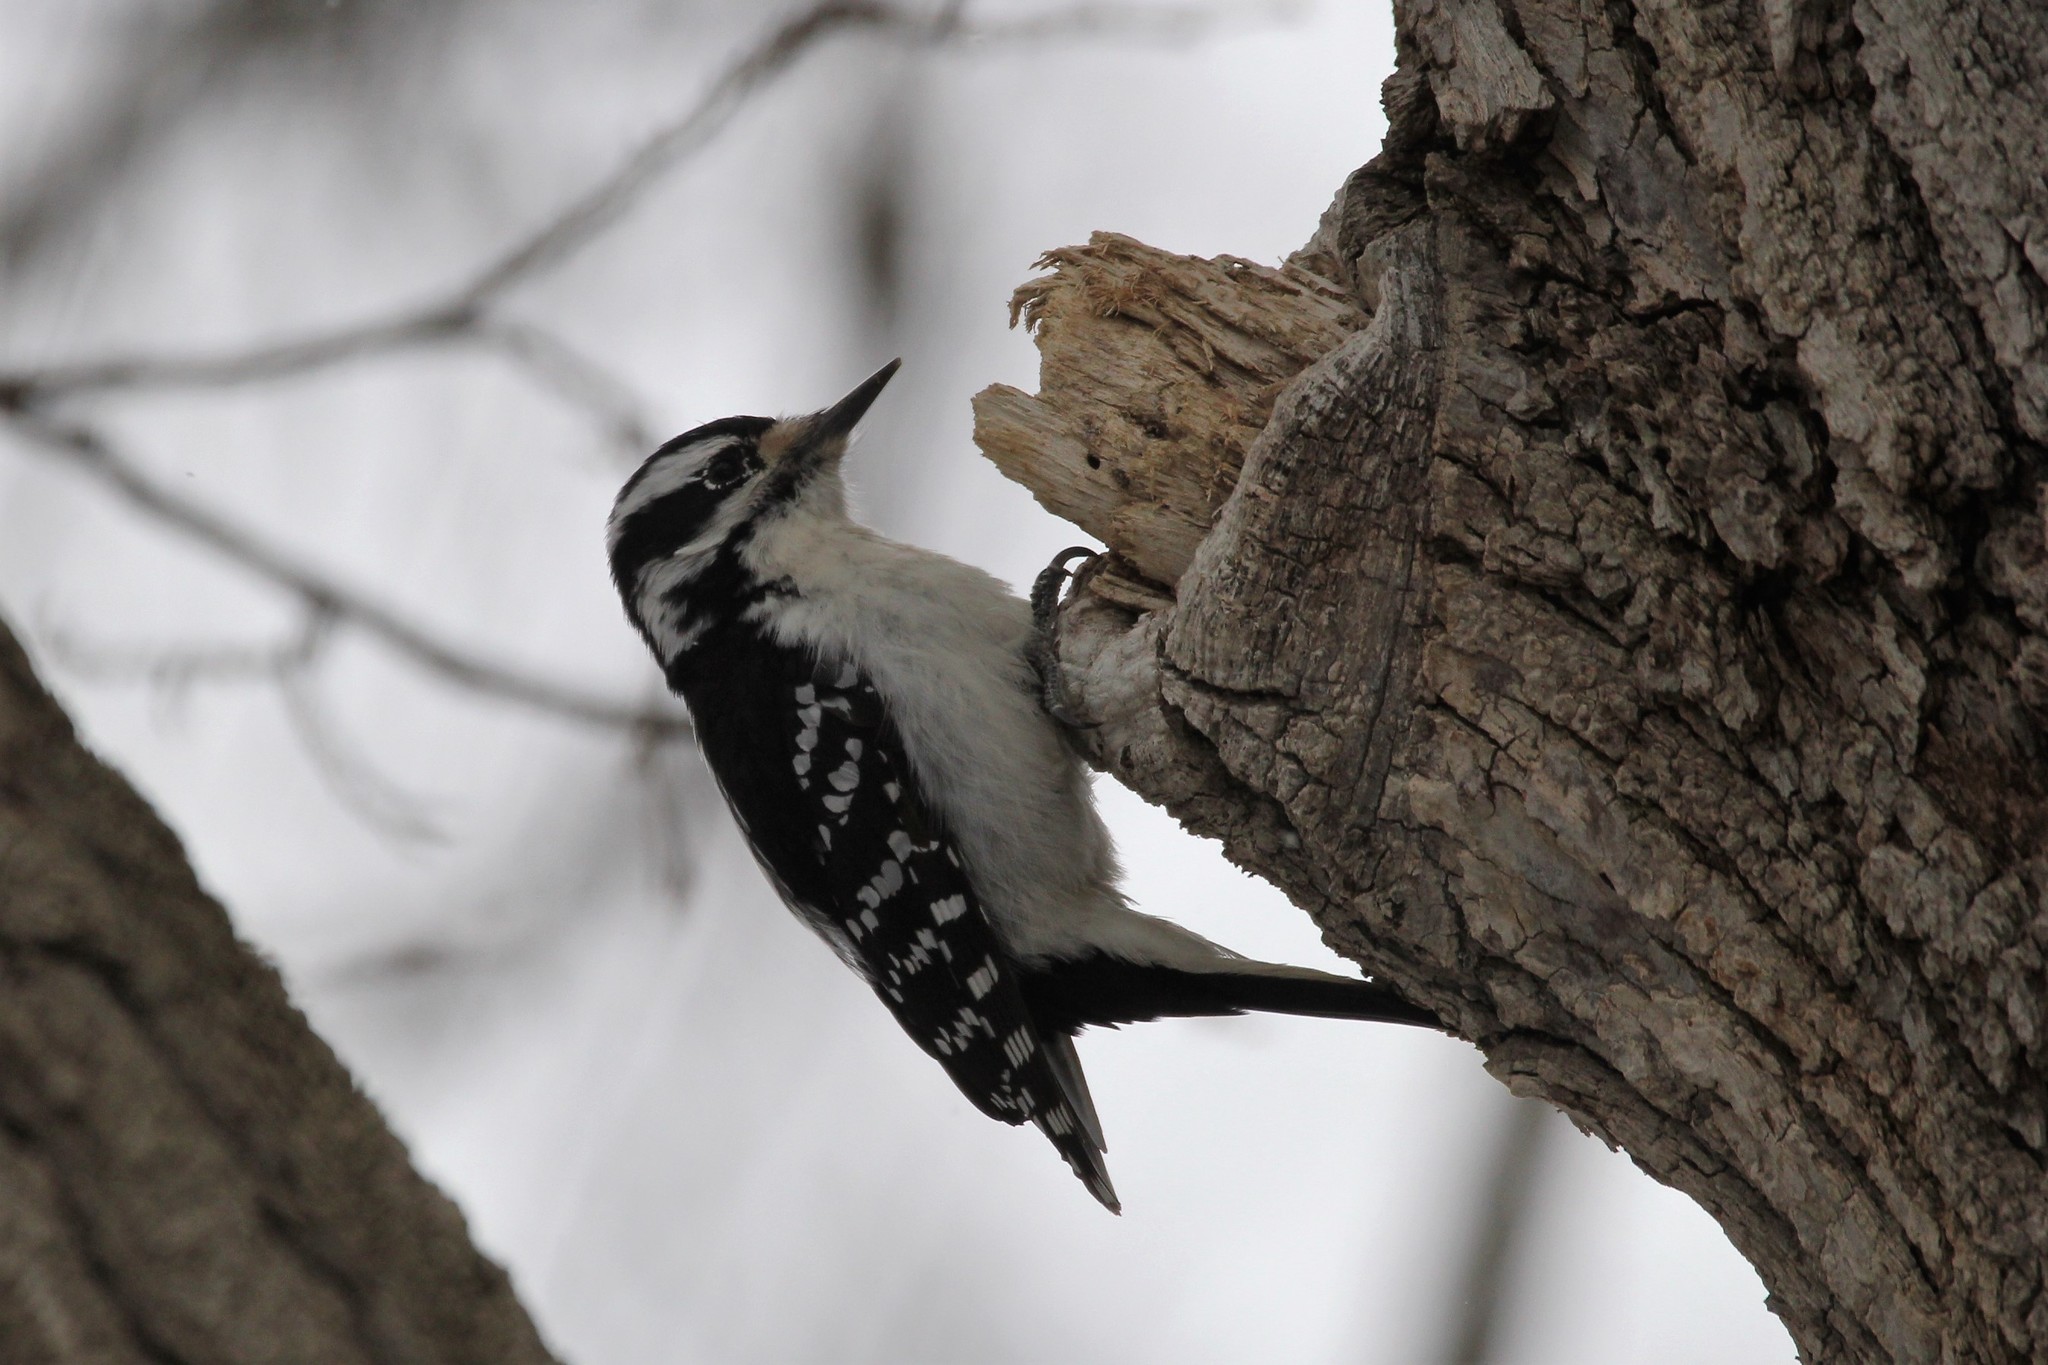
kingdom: Animalia
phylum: Chordata
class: Aves
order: Piciformes
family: Picidae
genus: Leuconotopicus
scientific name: Leuconotopicus villosus
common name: Hairy woodpecker
